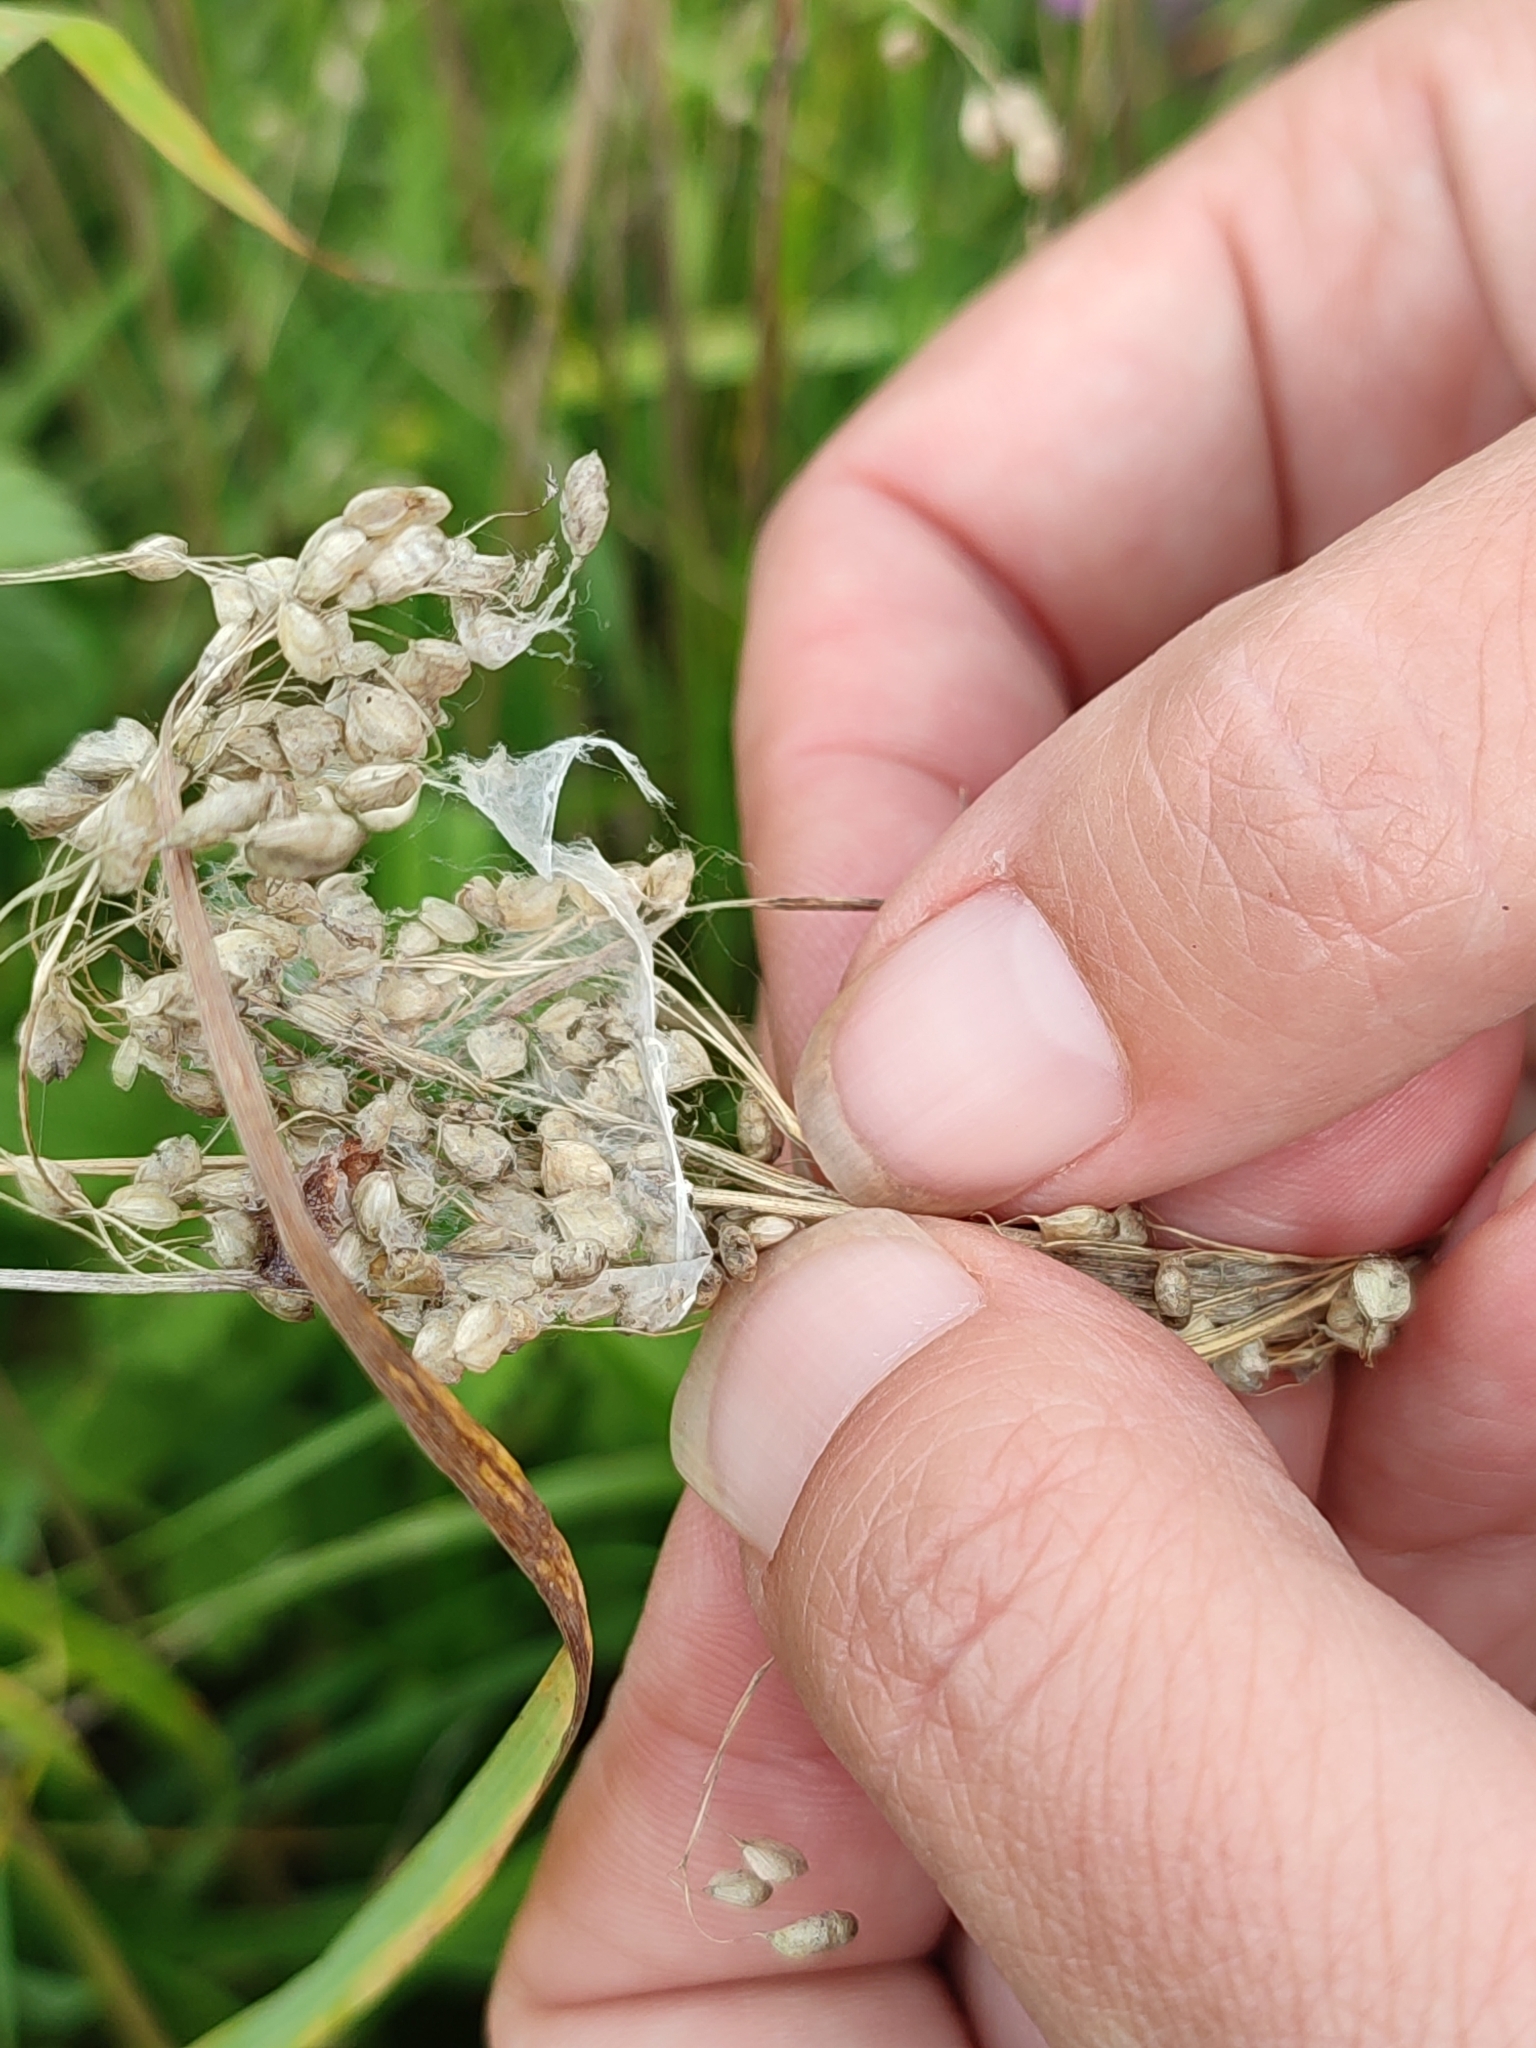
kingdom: Plantae
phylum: Tracheophyta
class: Liliopsida
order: Poales
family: Poaceae
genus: Briza
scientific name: Briza media
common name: Quaking grass
